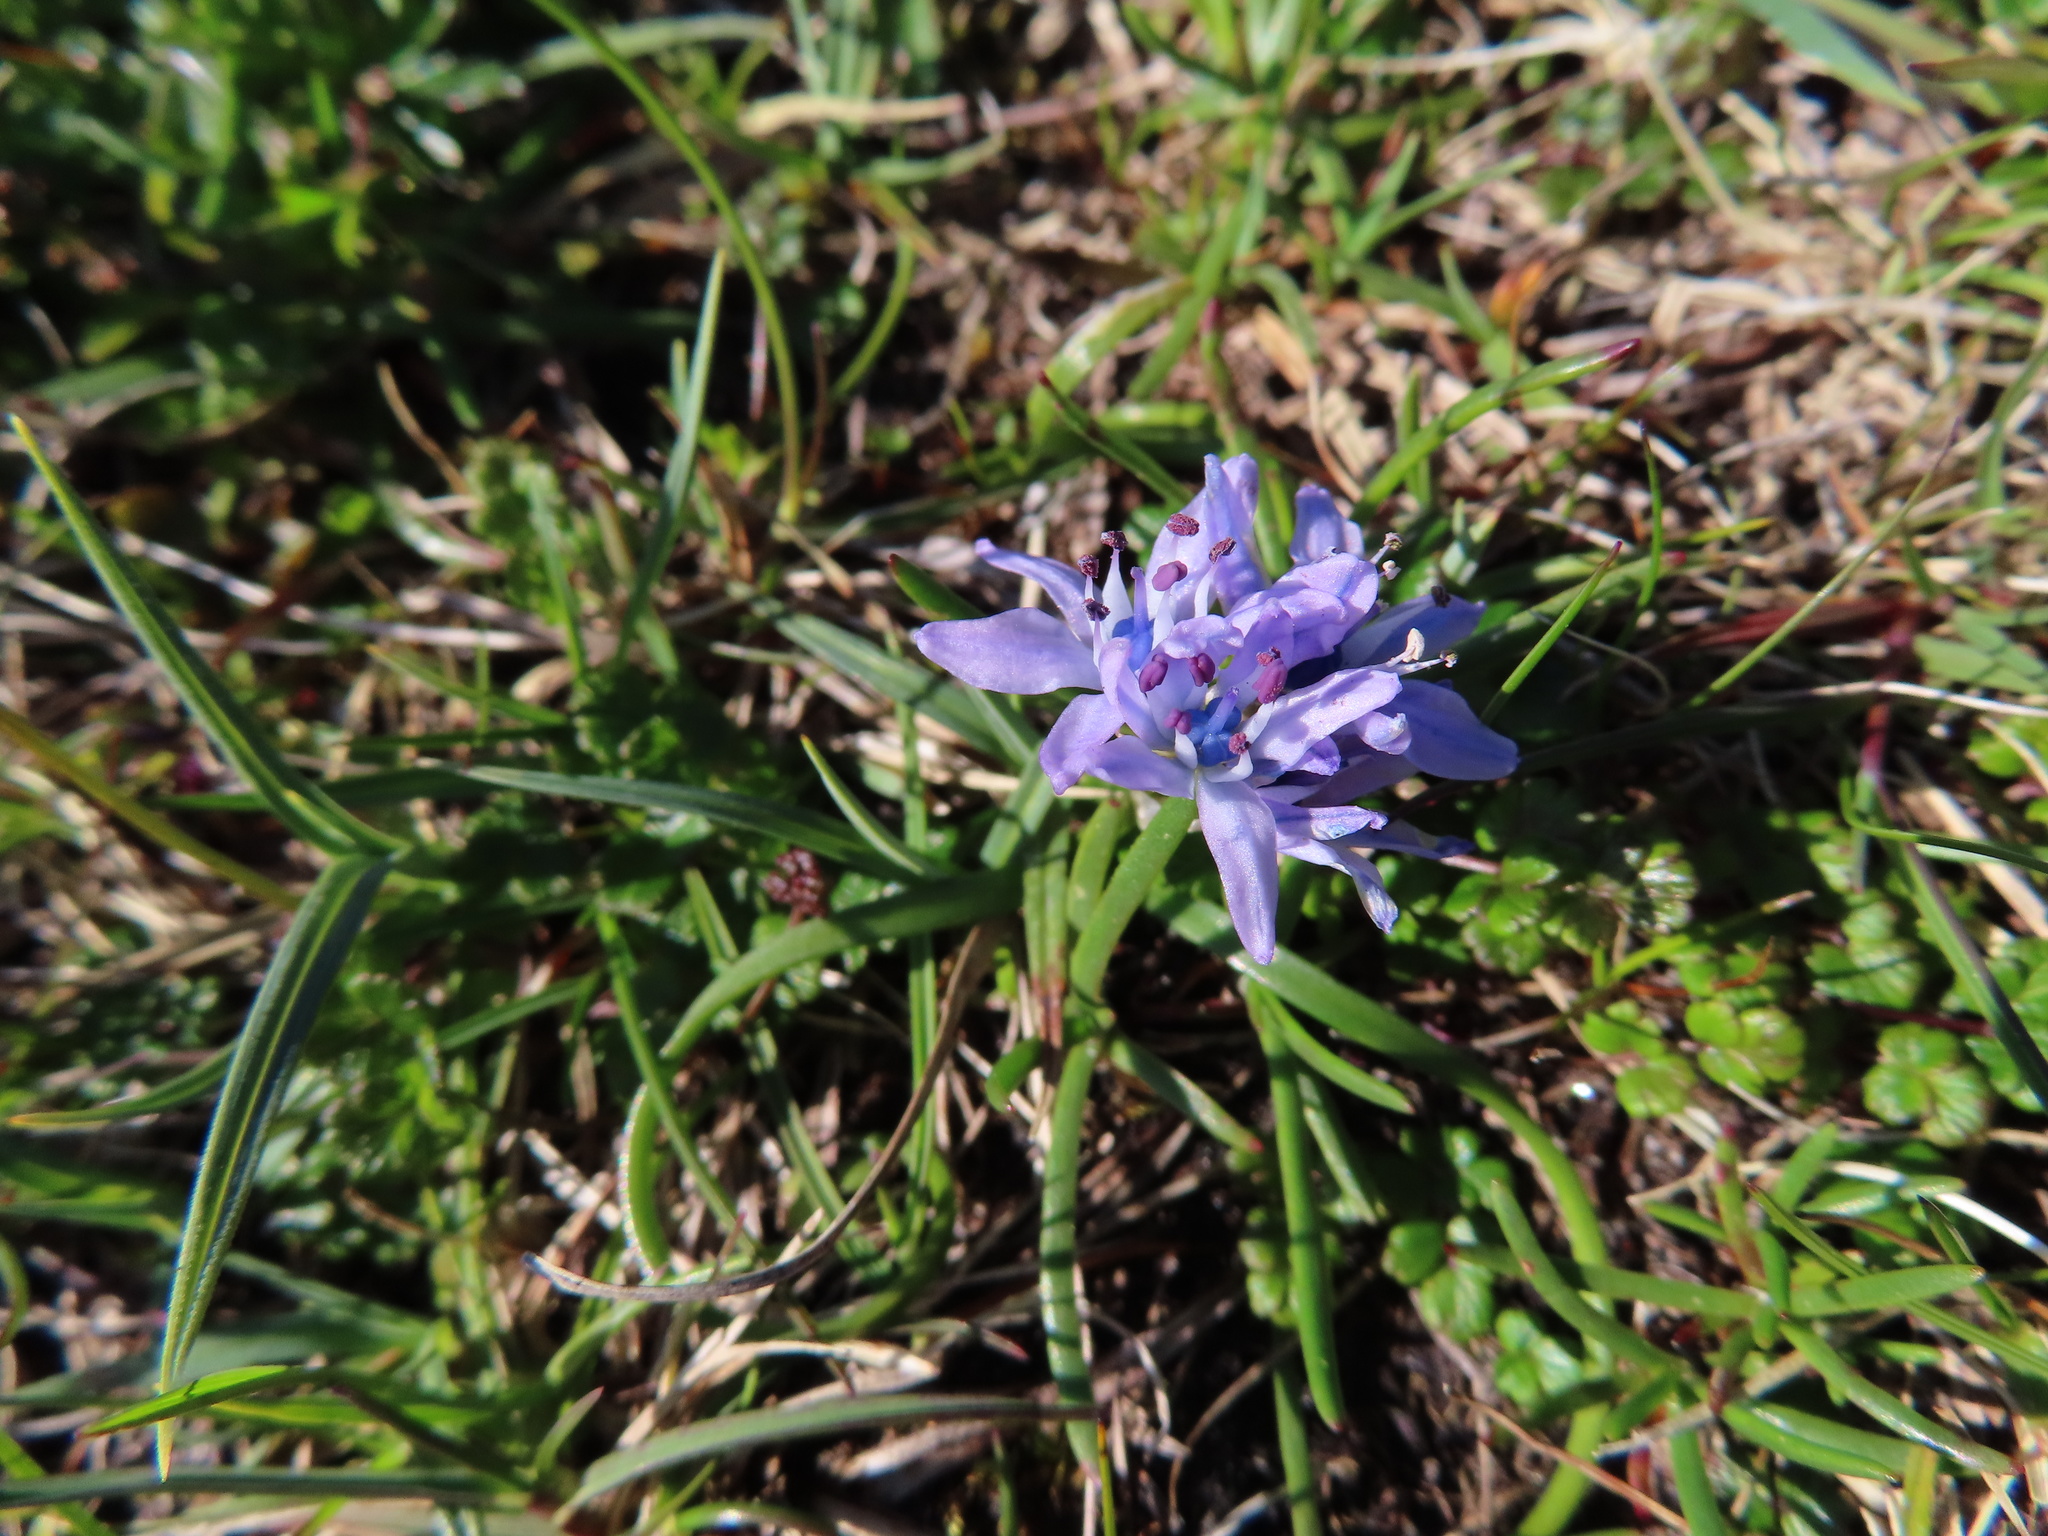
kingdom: Plantae
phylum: Tracheophyta
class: Liliopsida
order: Asparagales
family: Asparagaceae
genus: Scilla
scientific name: Scilla verna
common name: Spring squill
